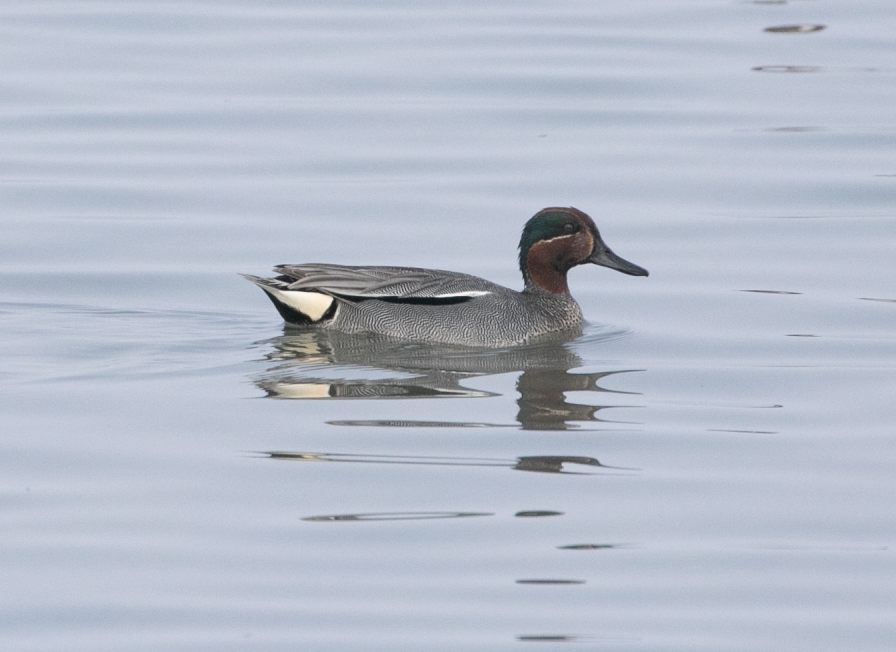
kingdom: Animalia
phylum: Chordata
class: Aves
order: Anseriformes
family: Anatidae
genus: Anas
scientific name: Anas crecca
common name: Eurasian teal
